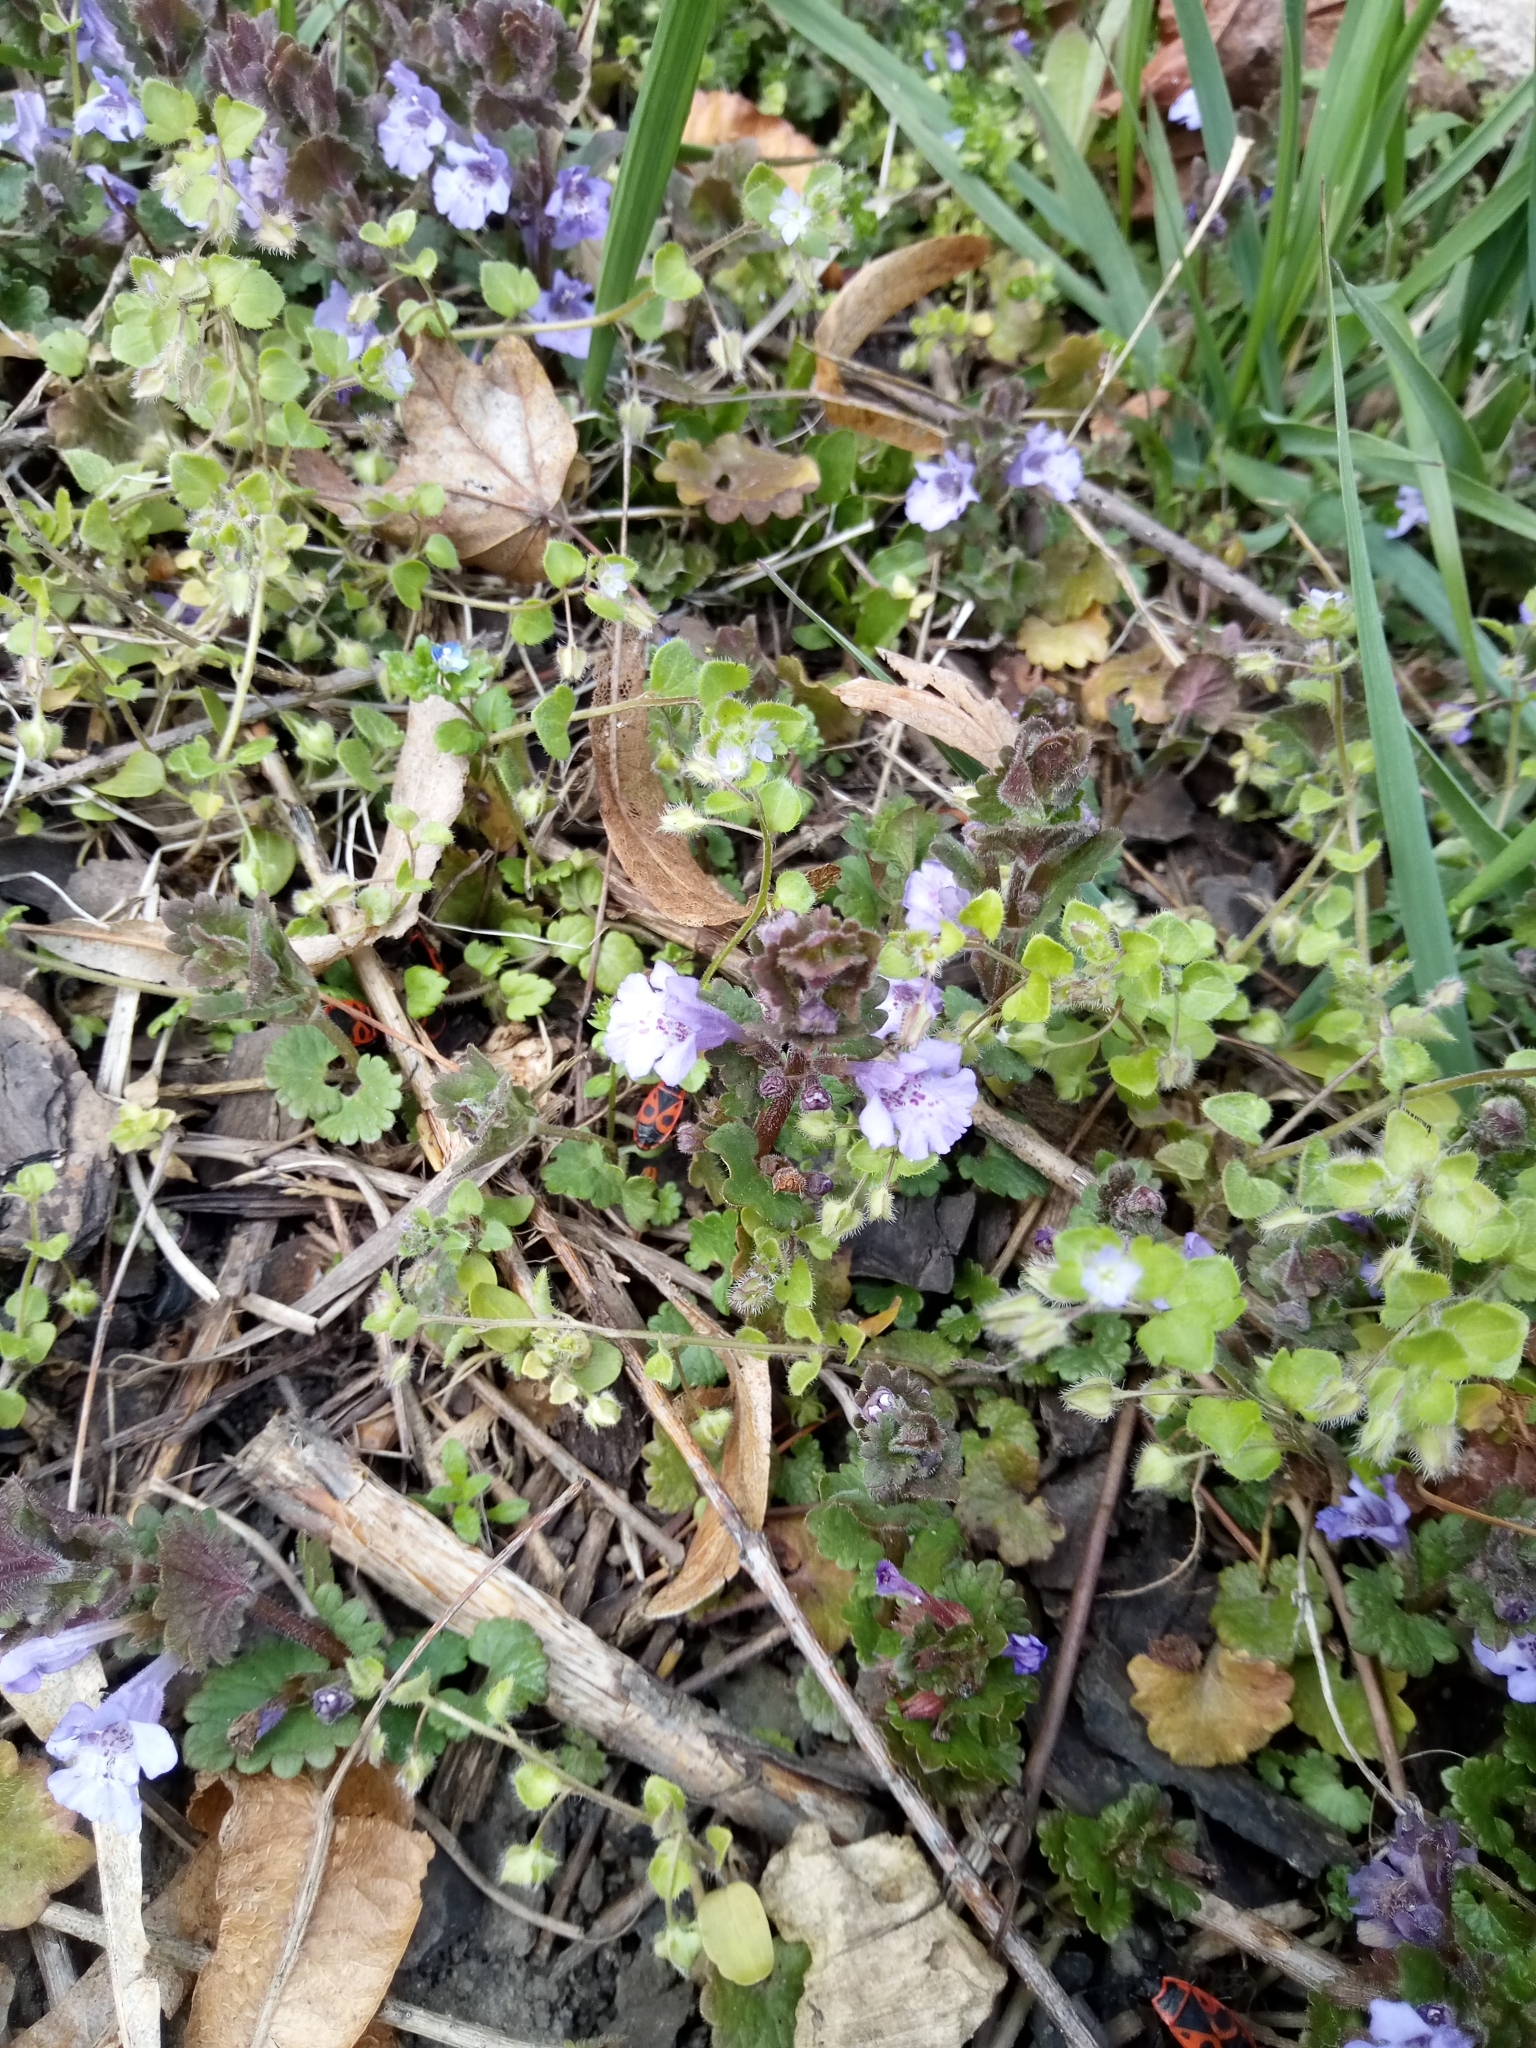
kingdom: Plantae
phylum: Tracheophyta
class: Magnoliopsida
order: Lamiales
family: Lamiaceae
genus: Glechoma
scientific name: Glechoma hederacea
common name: Ground ivy
